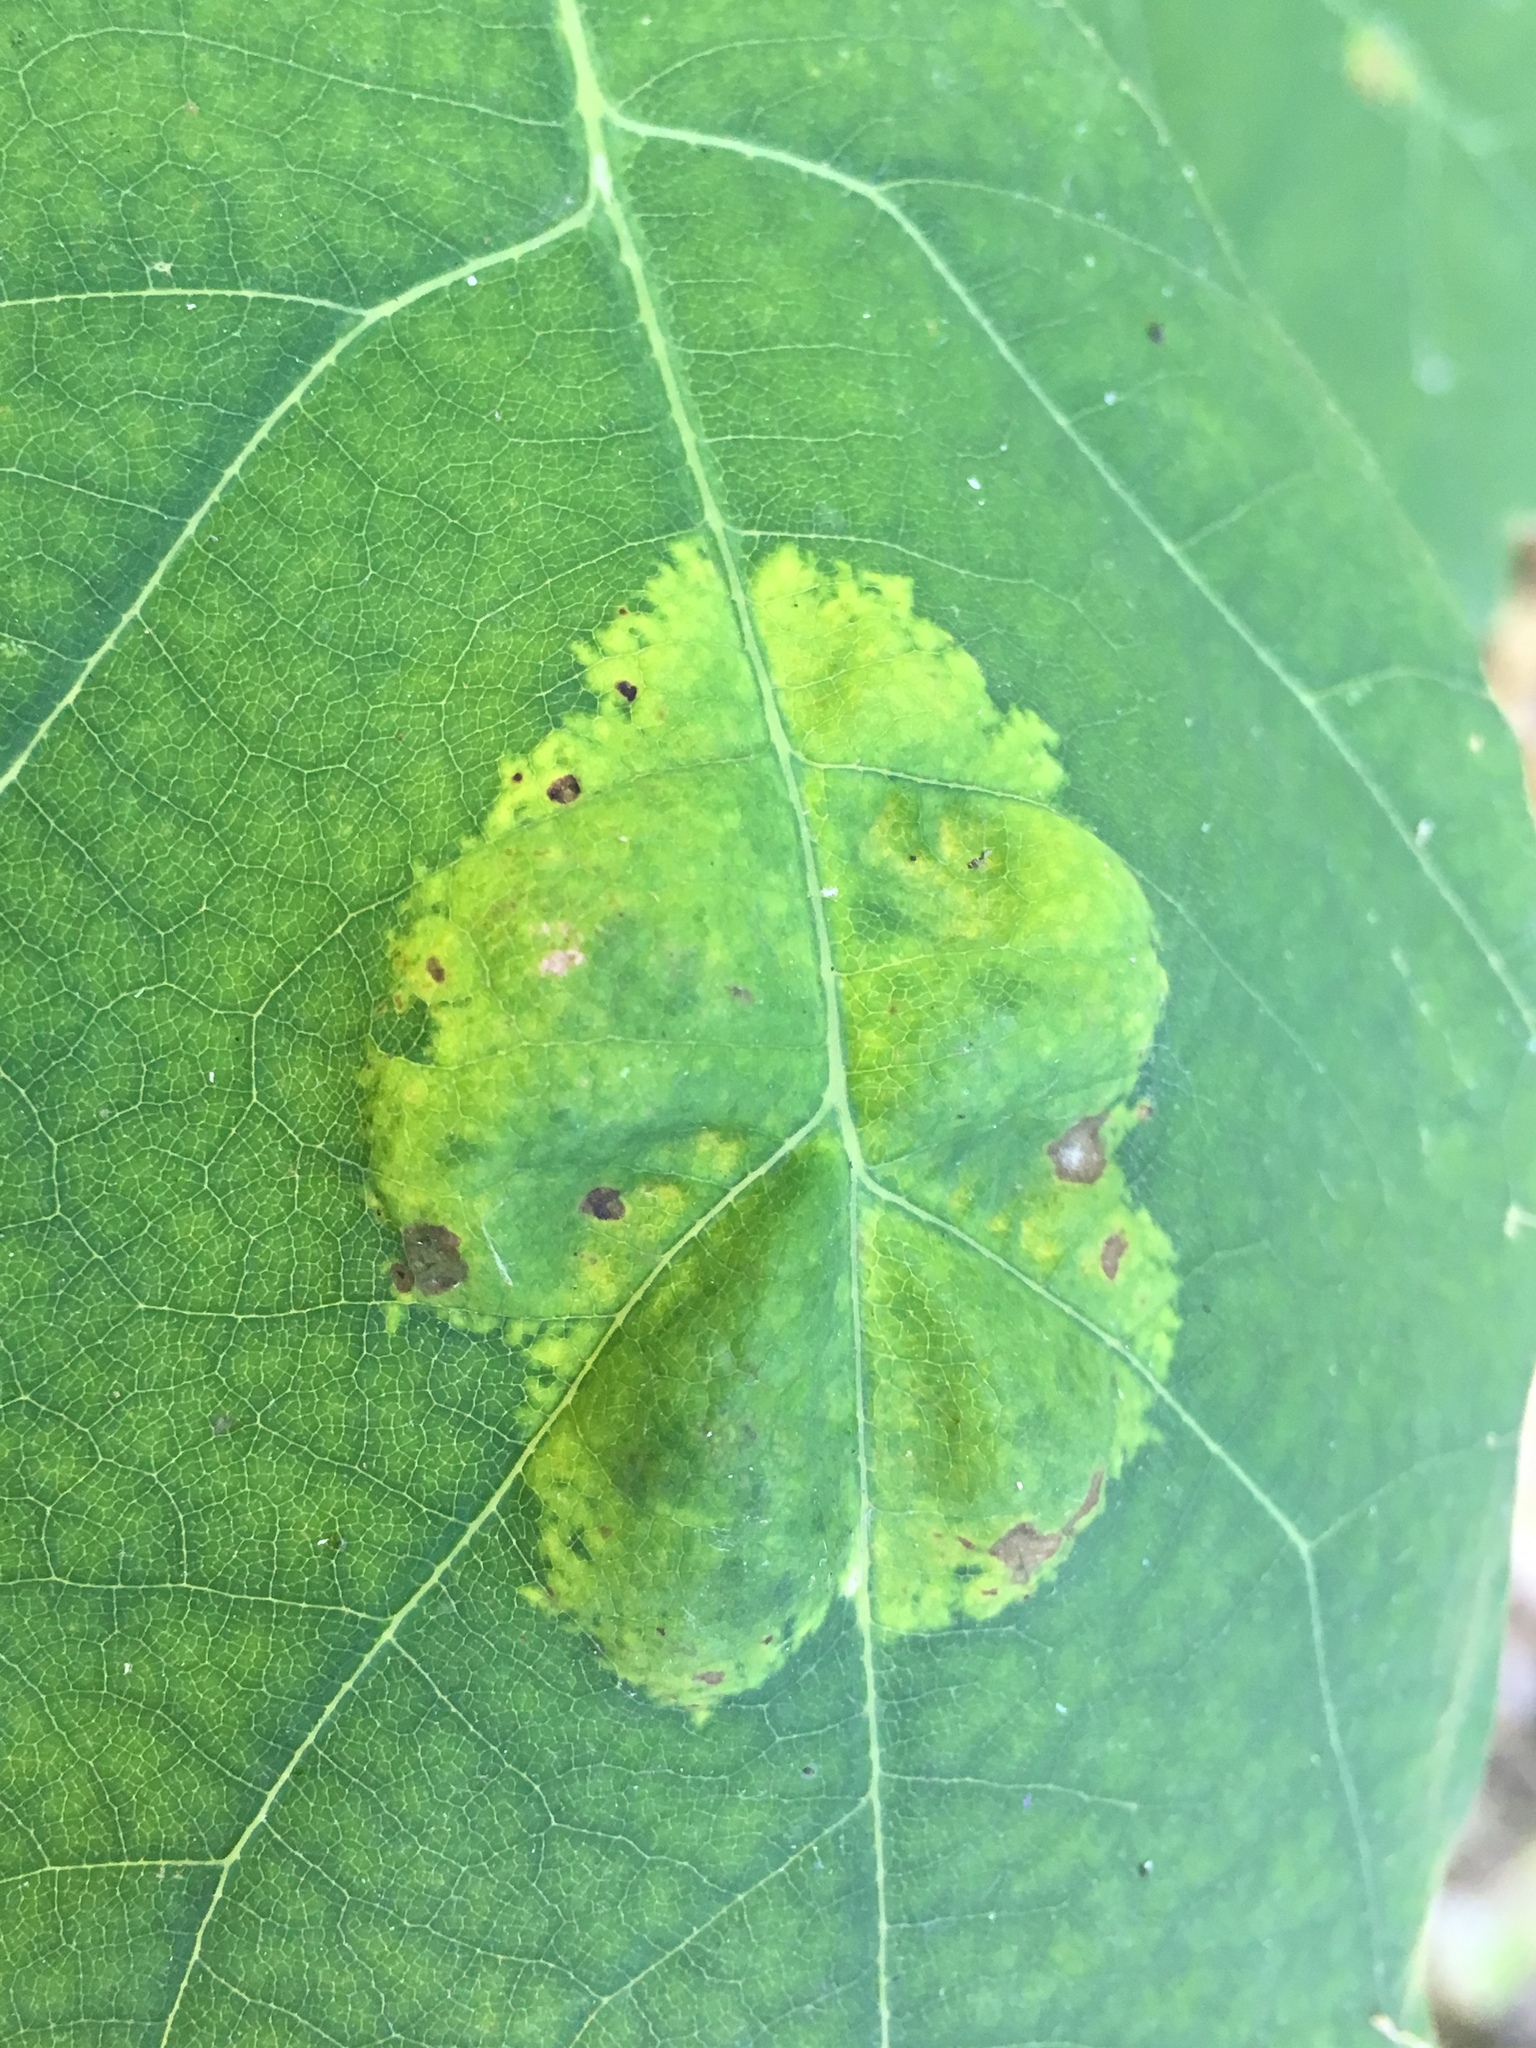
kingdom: Fungi
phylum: Ascomycota
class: Taphrinomycetes
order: Taphrinales
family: Taphrinaceae
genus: Taphrina
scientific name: Taphrina caerulescens
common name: Oak leaf blister
